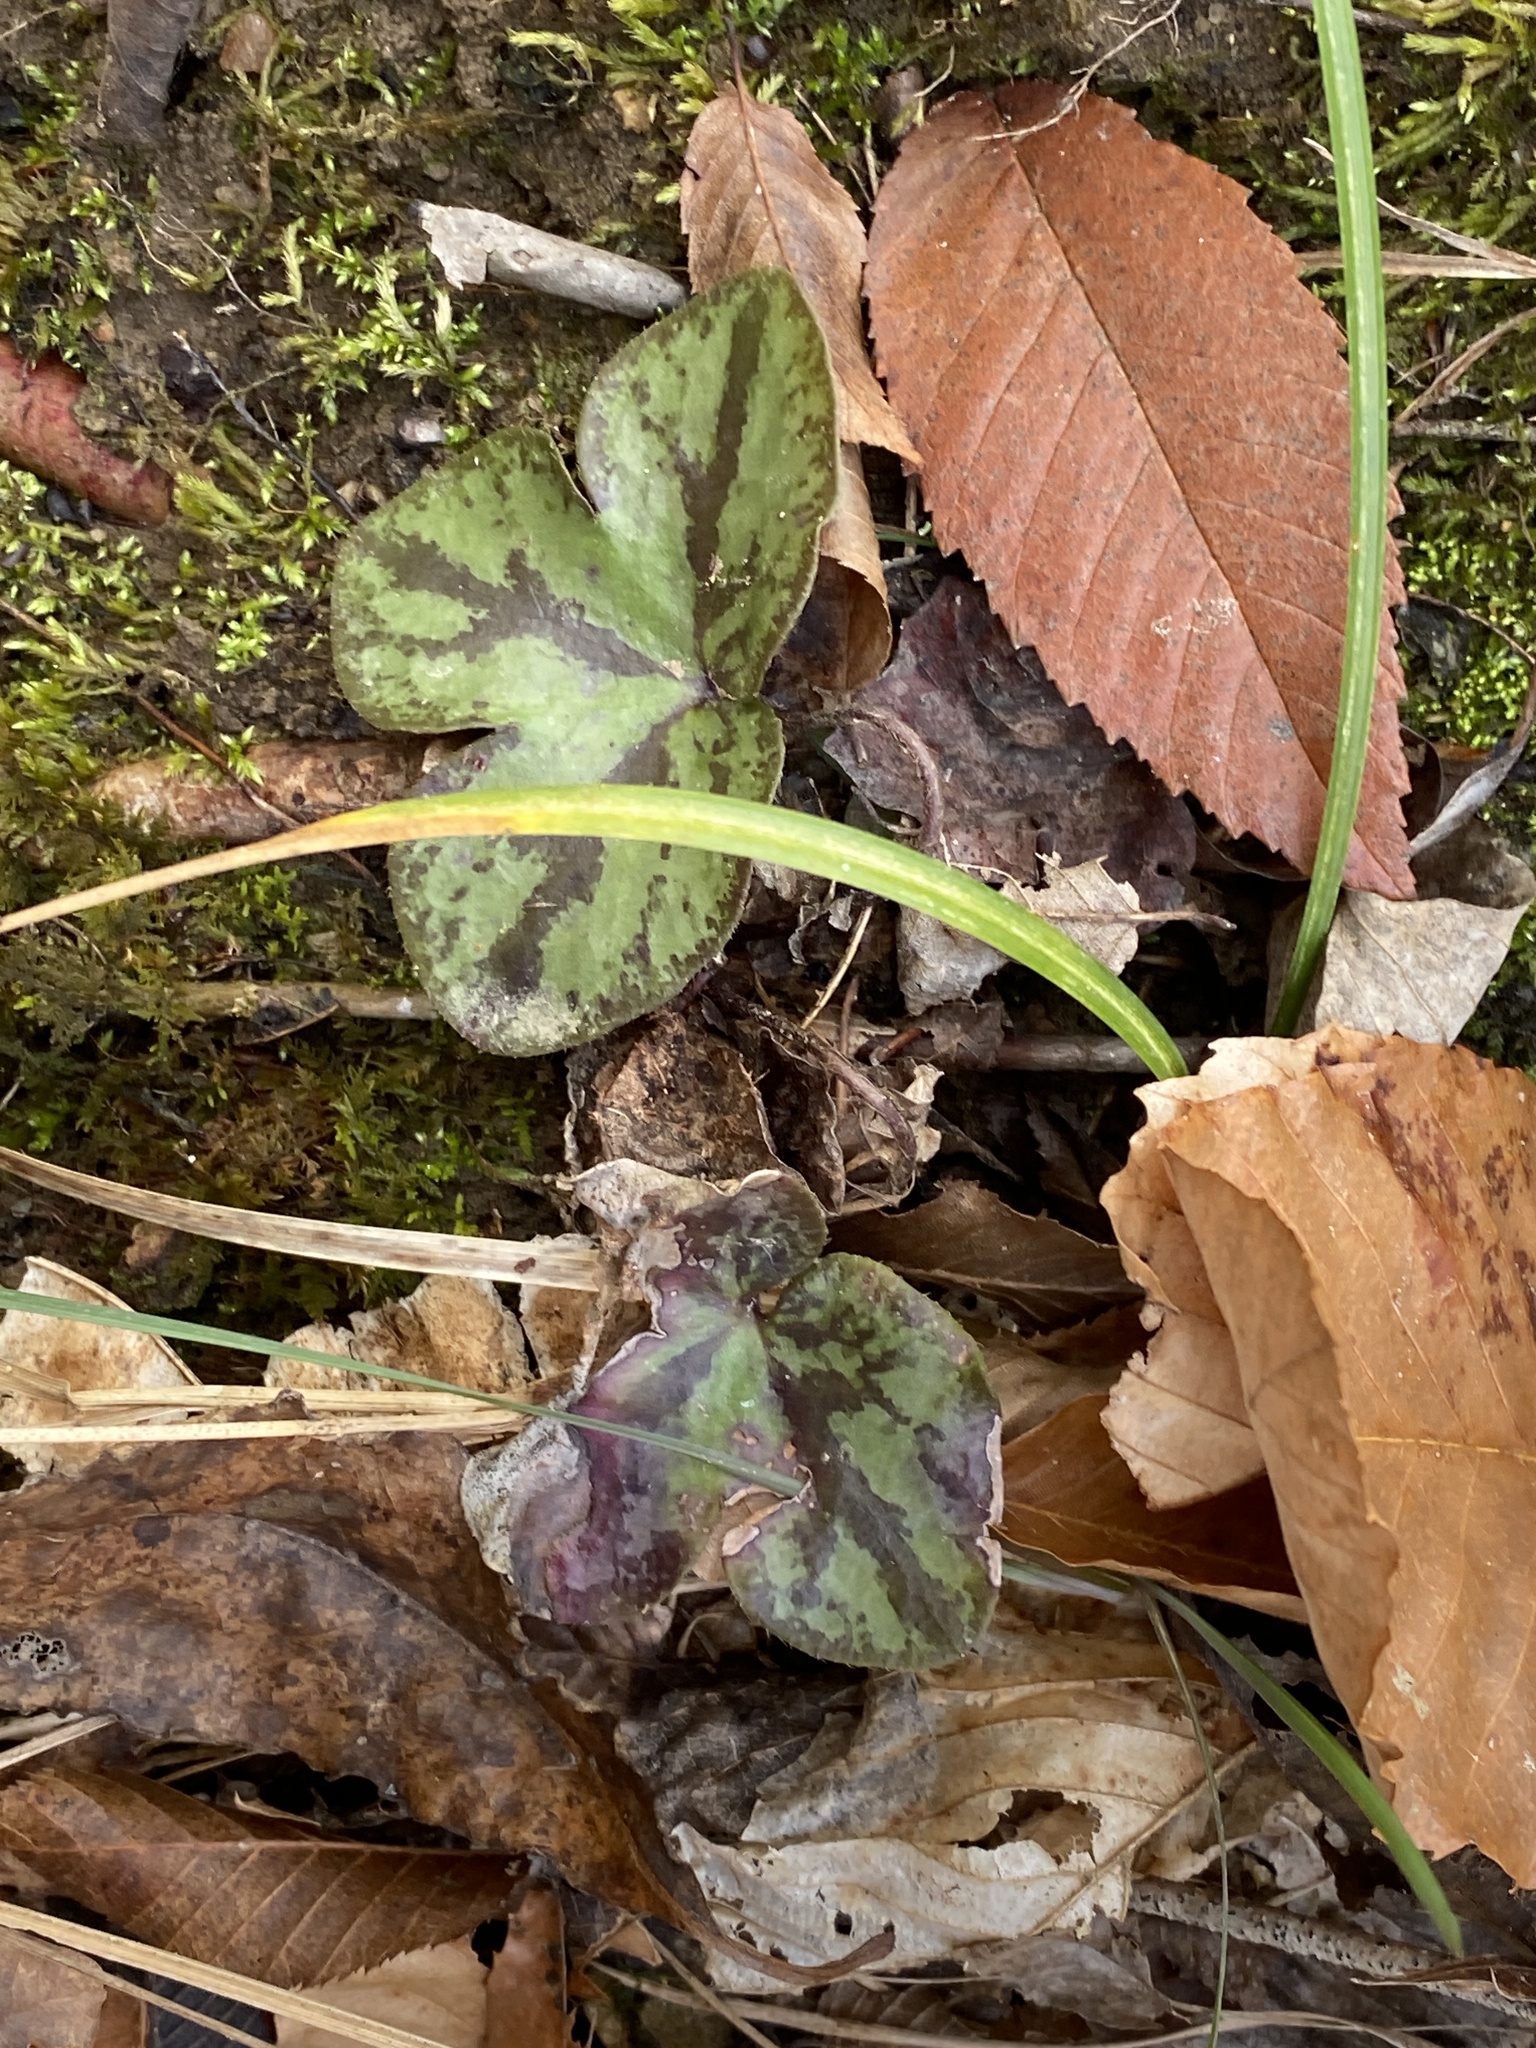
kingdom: Plantae
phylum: Tracheophyta
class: Magnoliopsida
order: Ranunculales
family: Ranunculaceae
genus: Hepatica
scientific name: Hepatica americana
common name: American hepatica
